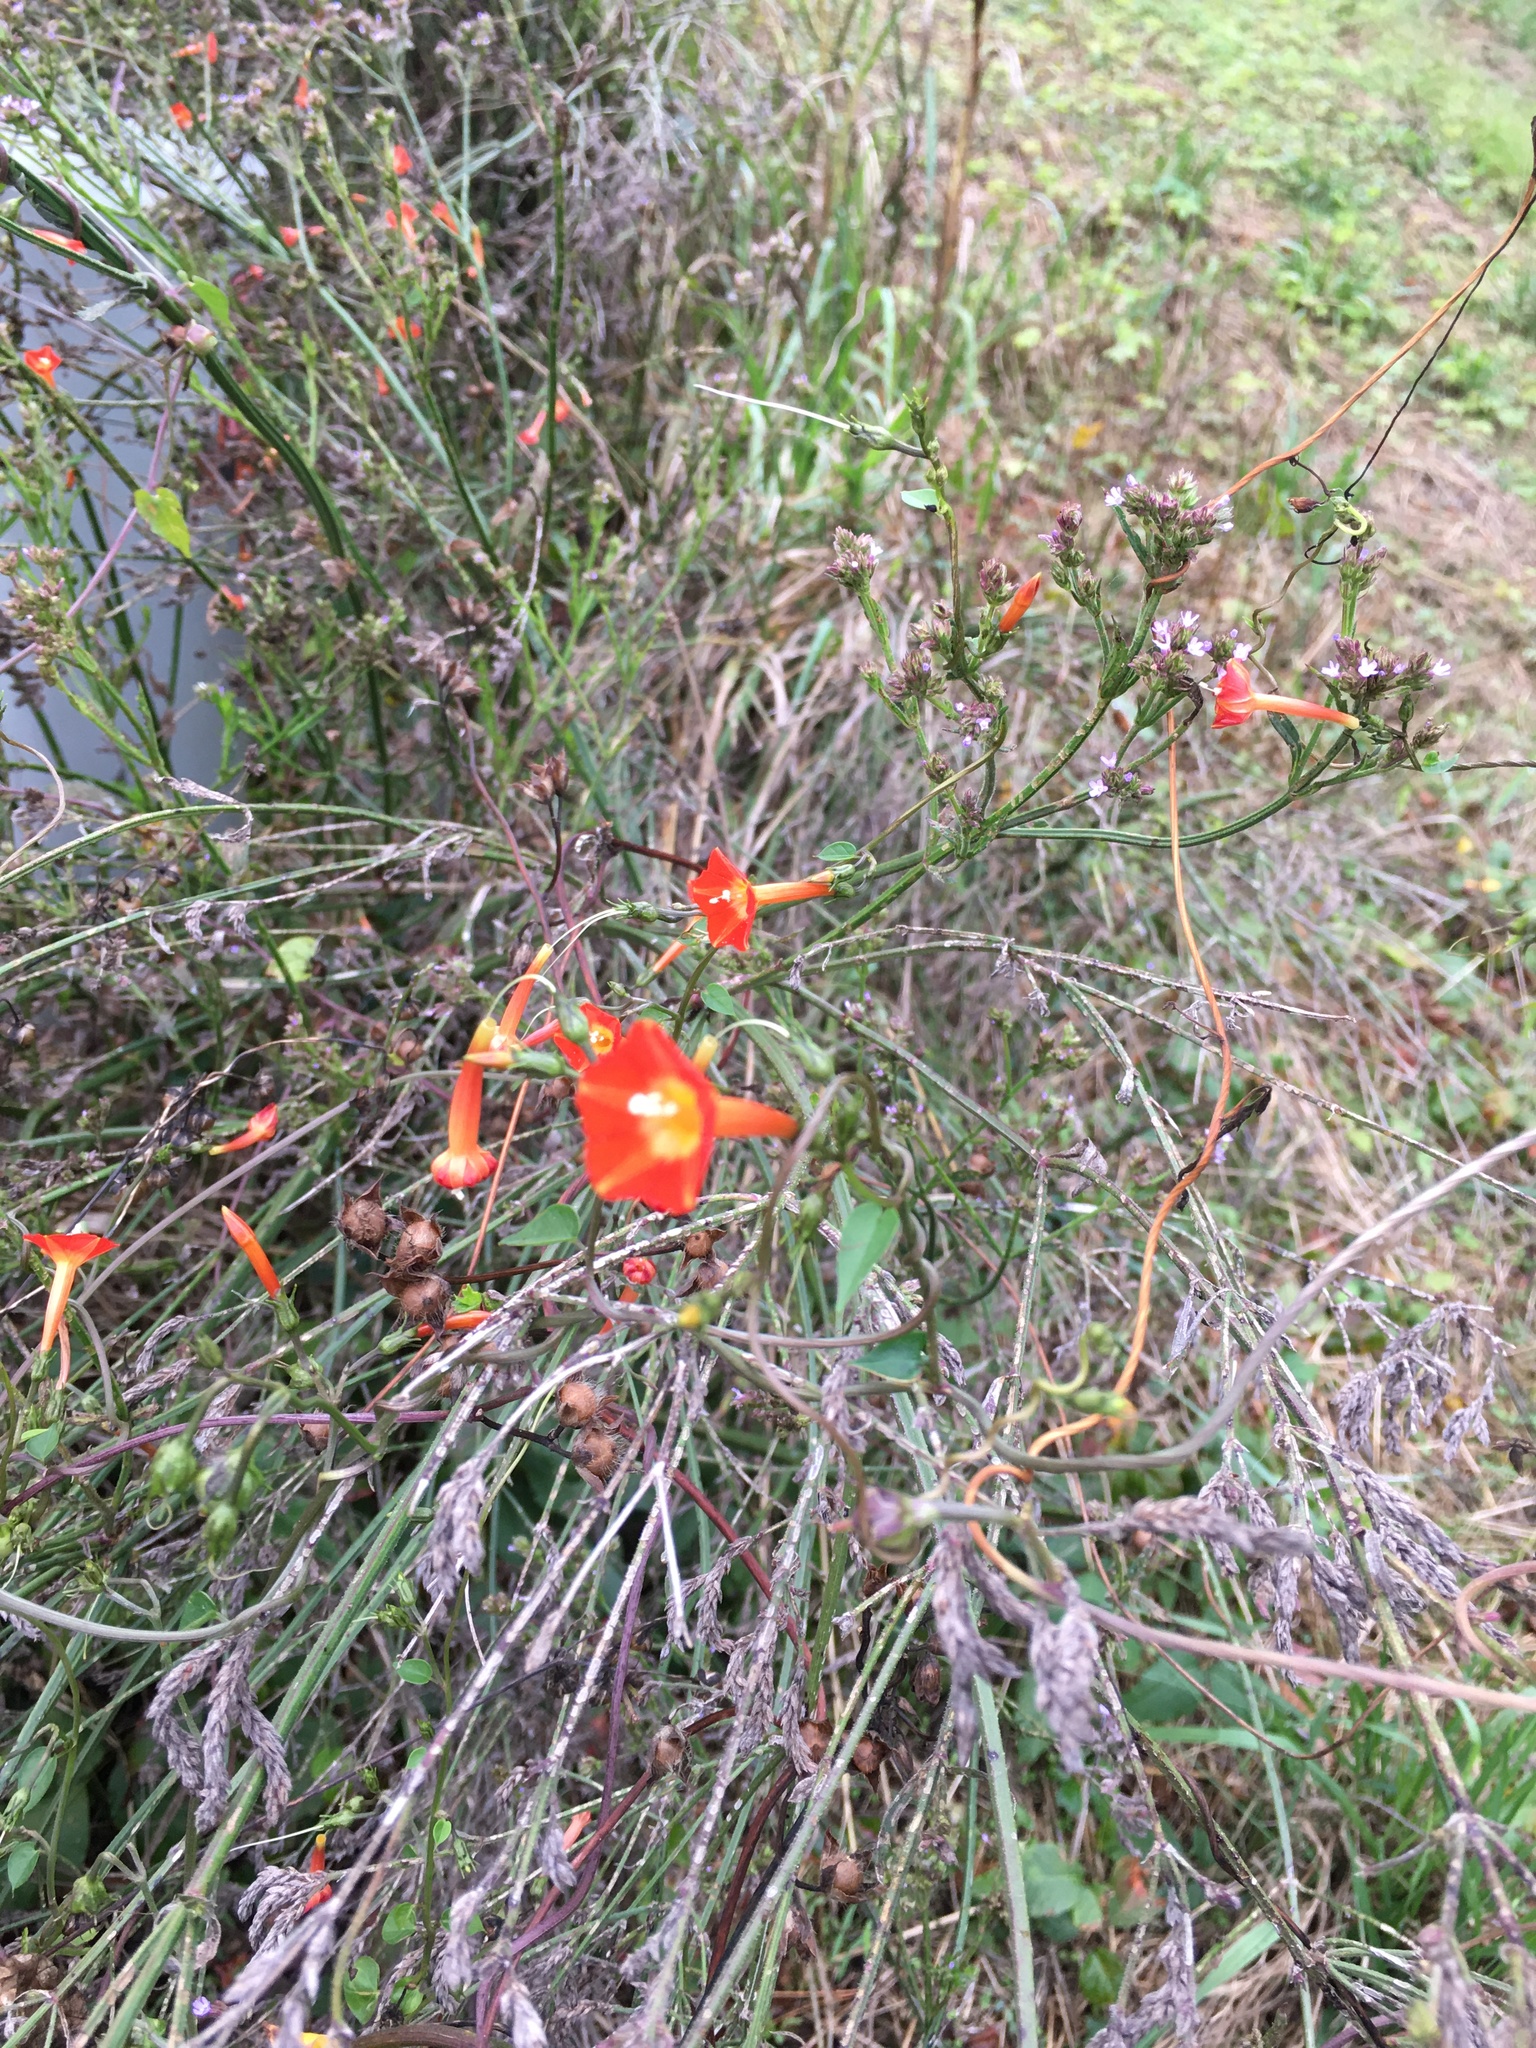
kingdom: Plantae
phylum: Tracheophyta
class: Magnoliopsida
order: Solanales
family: Convolvulaceae
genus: Ipomoea
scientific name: Ipomoea coccinea
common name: Red morning-glory
